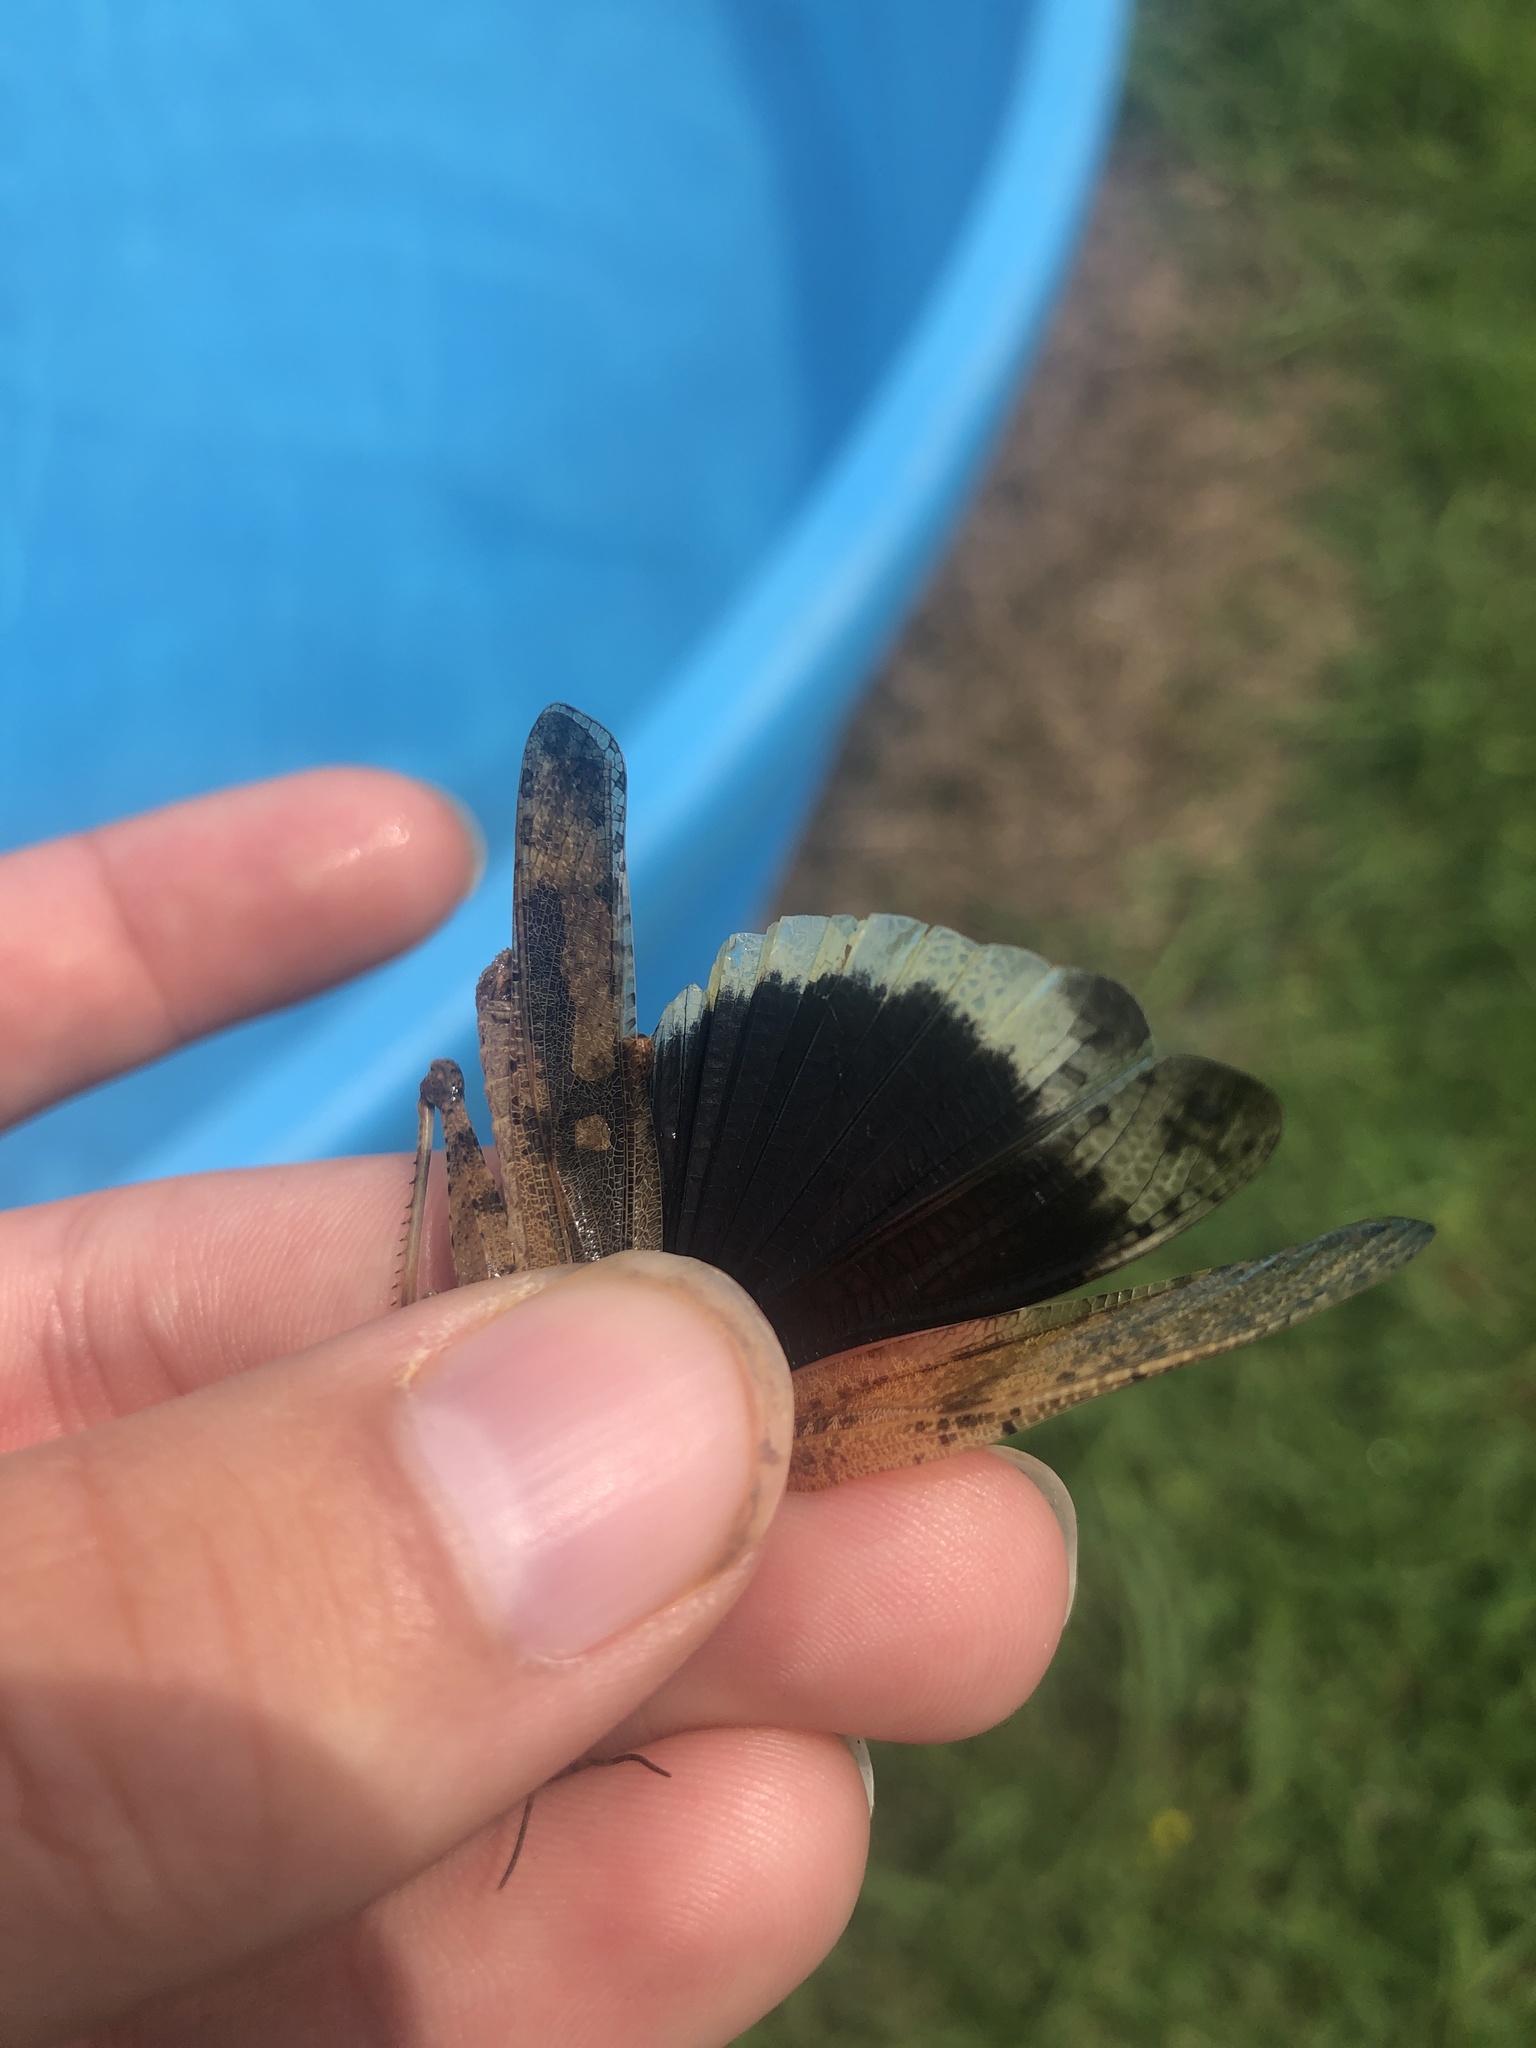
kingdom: Animalia
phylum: Arthropoda
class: Insecta
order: Orthoptera
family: Acrididae
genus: Dissosteira
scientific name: Dissosteira carolina
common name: Carolina grasshopper
